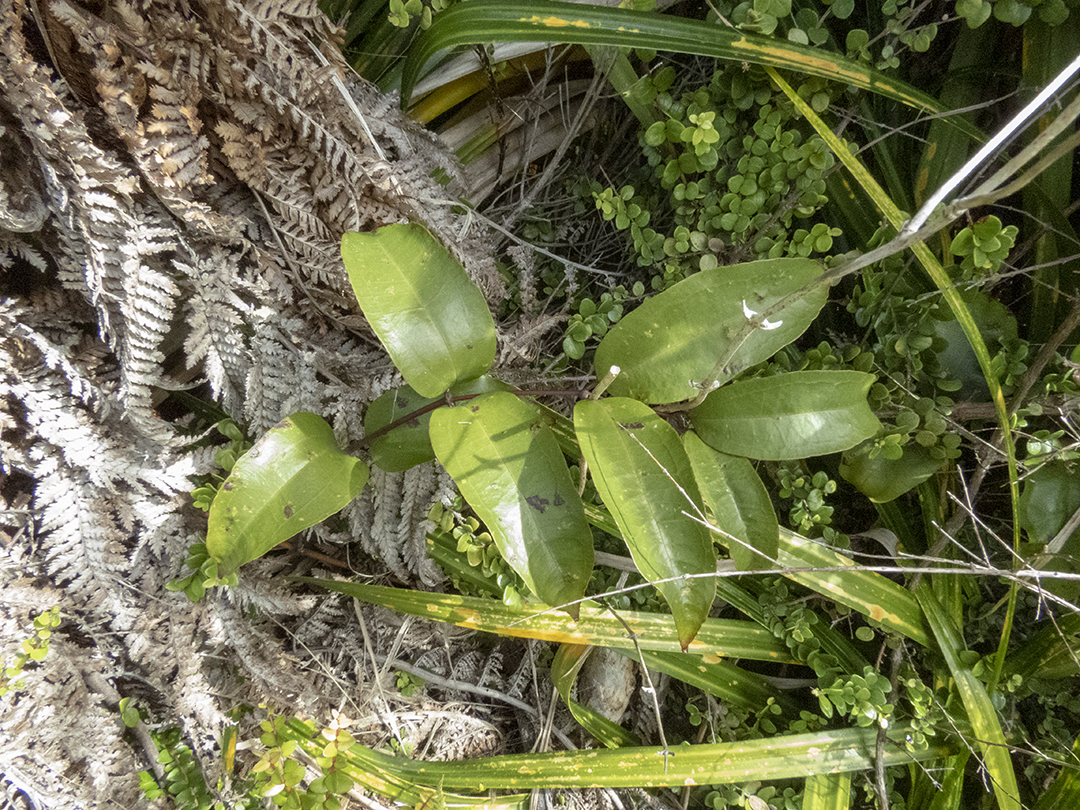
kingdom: Plantae
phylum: Tracheophyta
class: Liliopsida
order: Liliales
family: Ripogonaceae
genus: Ripogonum
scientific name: Ripogonum scandens
